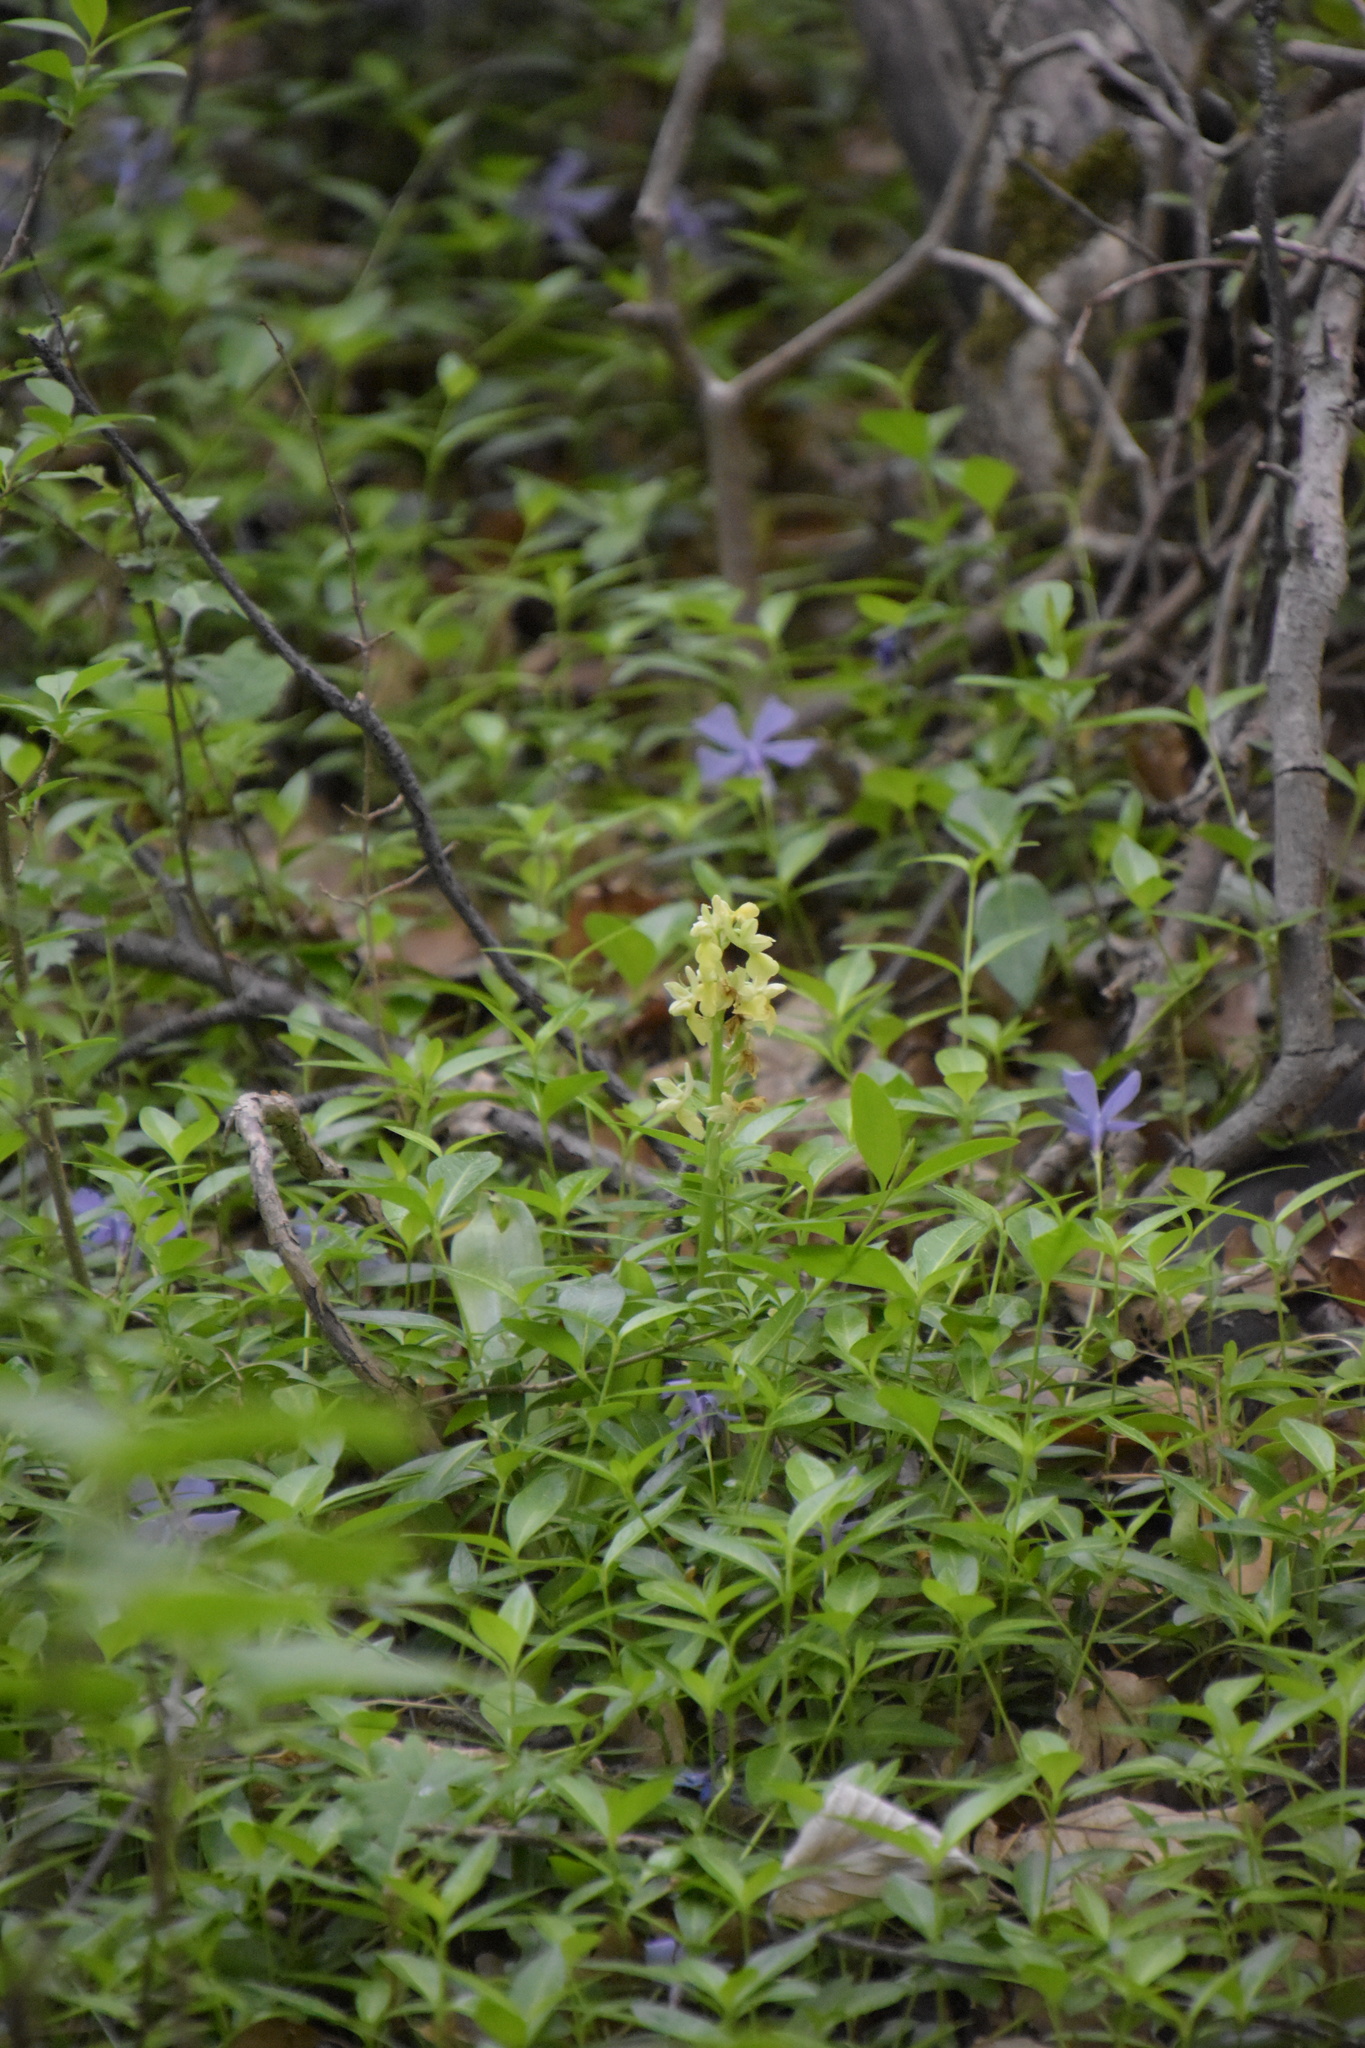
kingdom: Plantae
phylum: Tracheophyta
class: Liliopsida
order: Asparagales
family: Orchidaceae
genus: Orchis
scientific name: Orchis pallens
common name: Pale-flowered orchid
